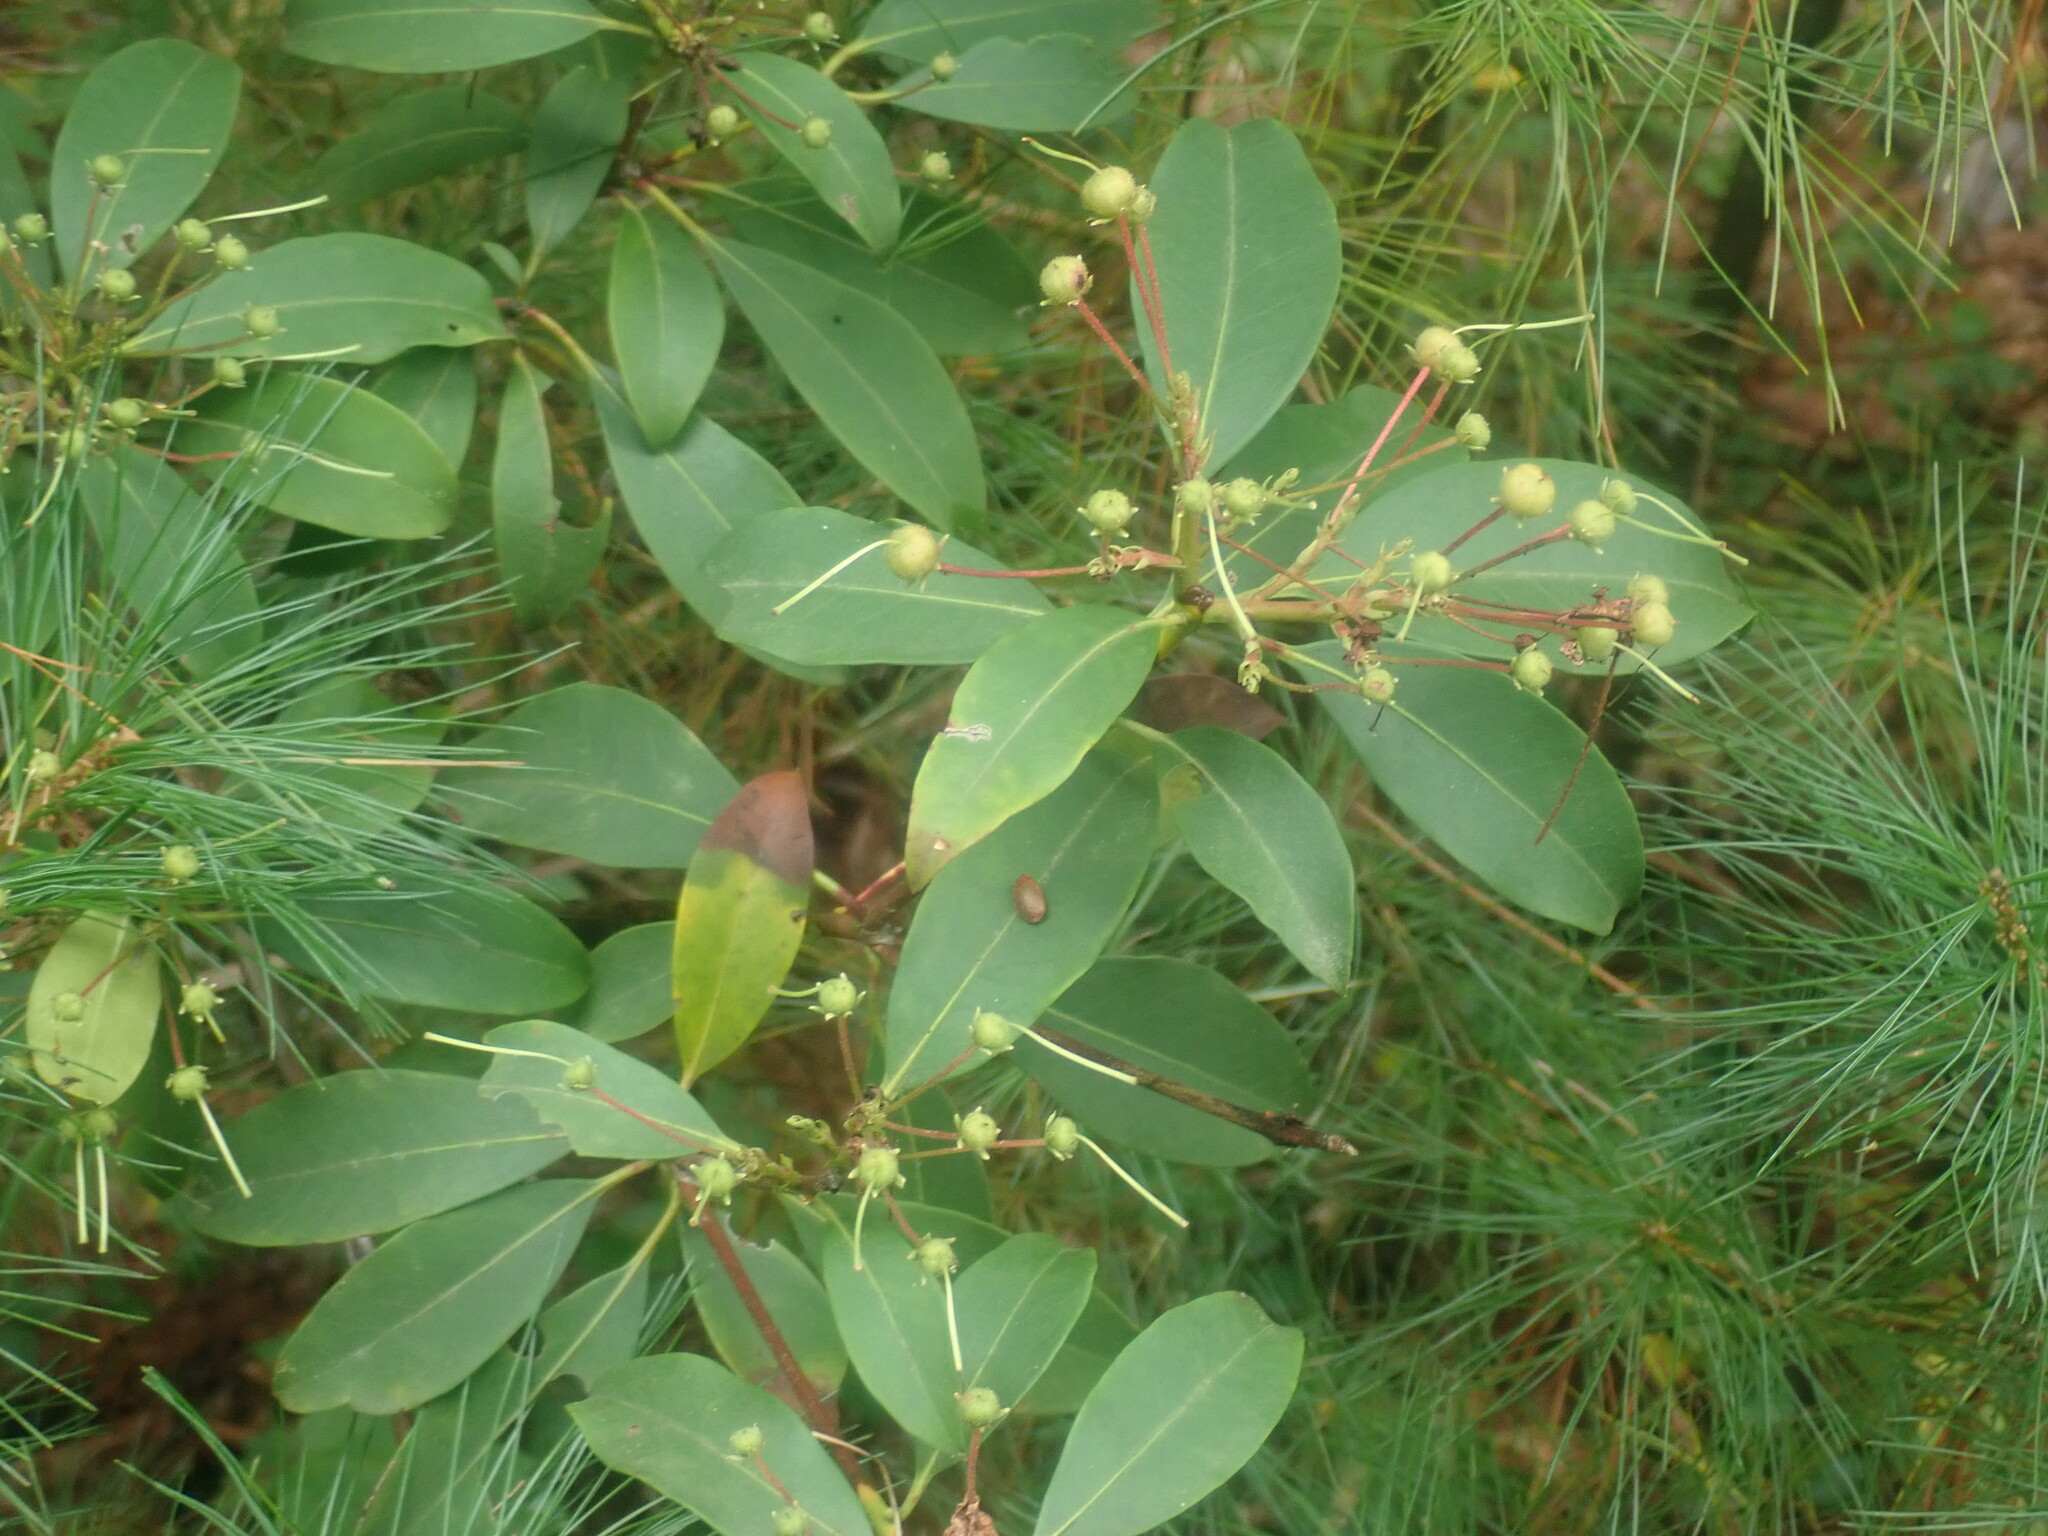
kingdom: Plantae
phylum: Tracheophyta
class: Magnoliopsida
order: Ericales
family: Ericaceae
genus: Kalmia
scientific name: Kalmia latifolia
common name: Mountain-laurel
